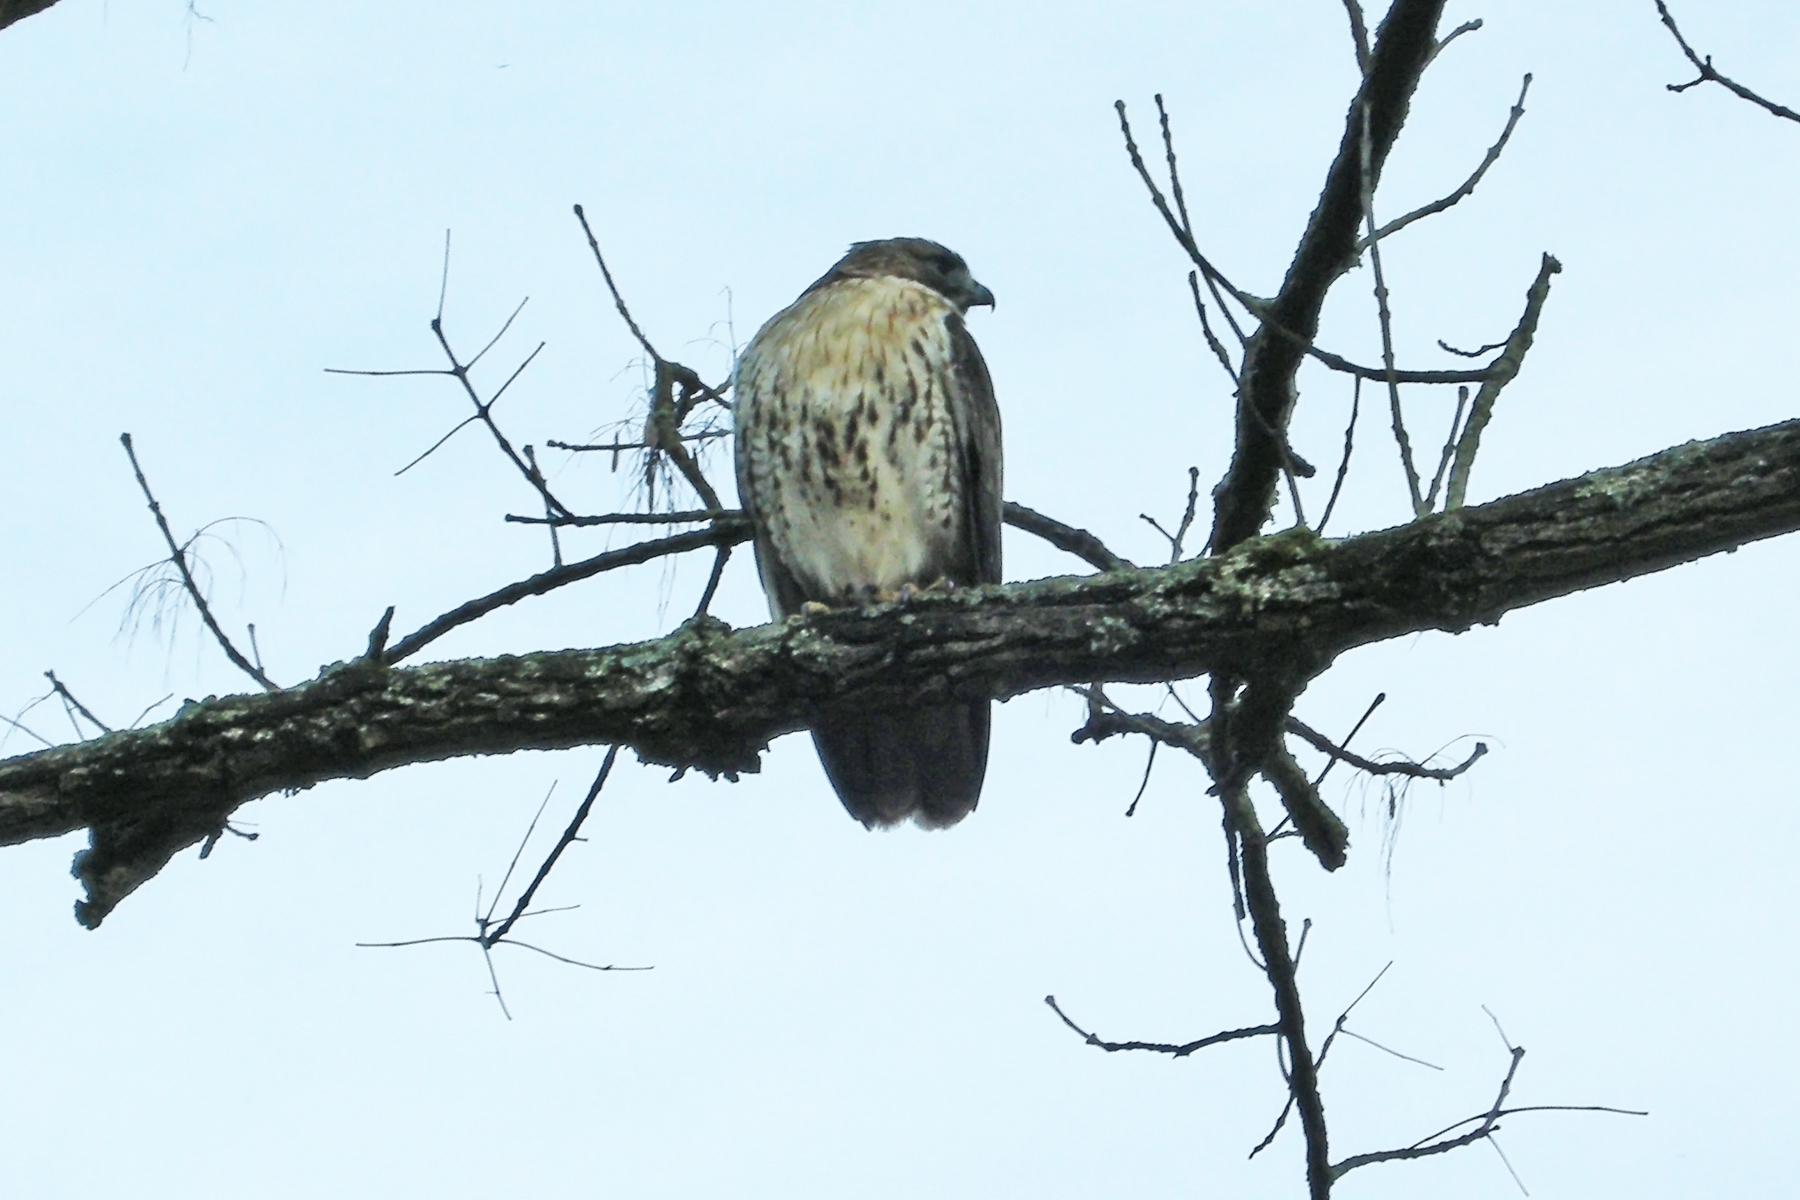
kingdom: Animalia
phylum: Chordata
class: Aves
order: Accipitriformes
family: Accipitridae
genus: Buteo
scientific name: Buteo jamaicensis
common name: Red-tailed hawk
